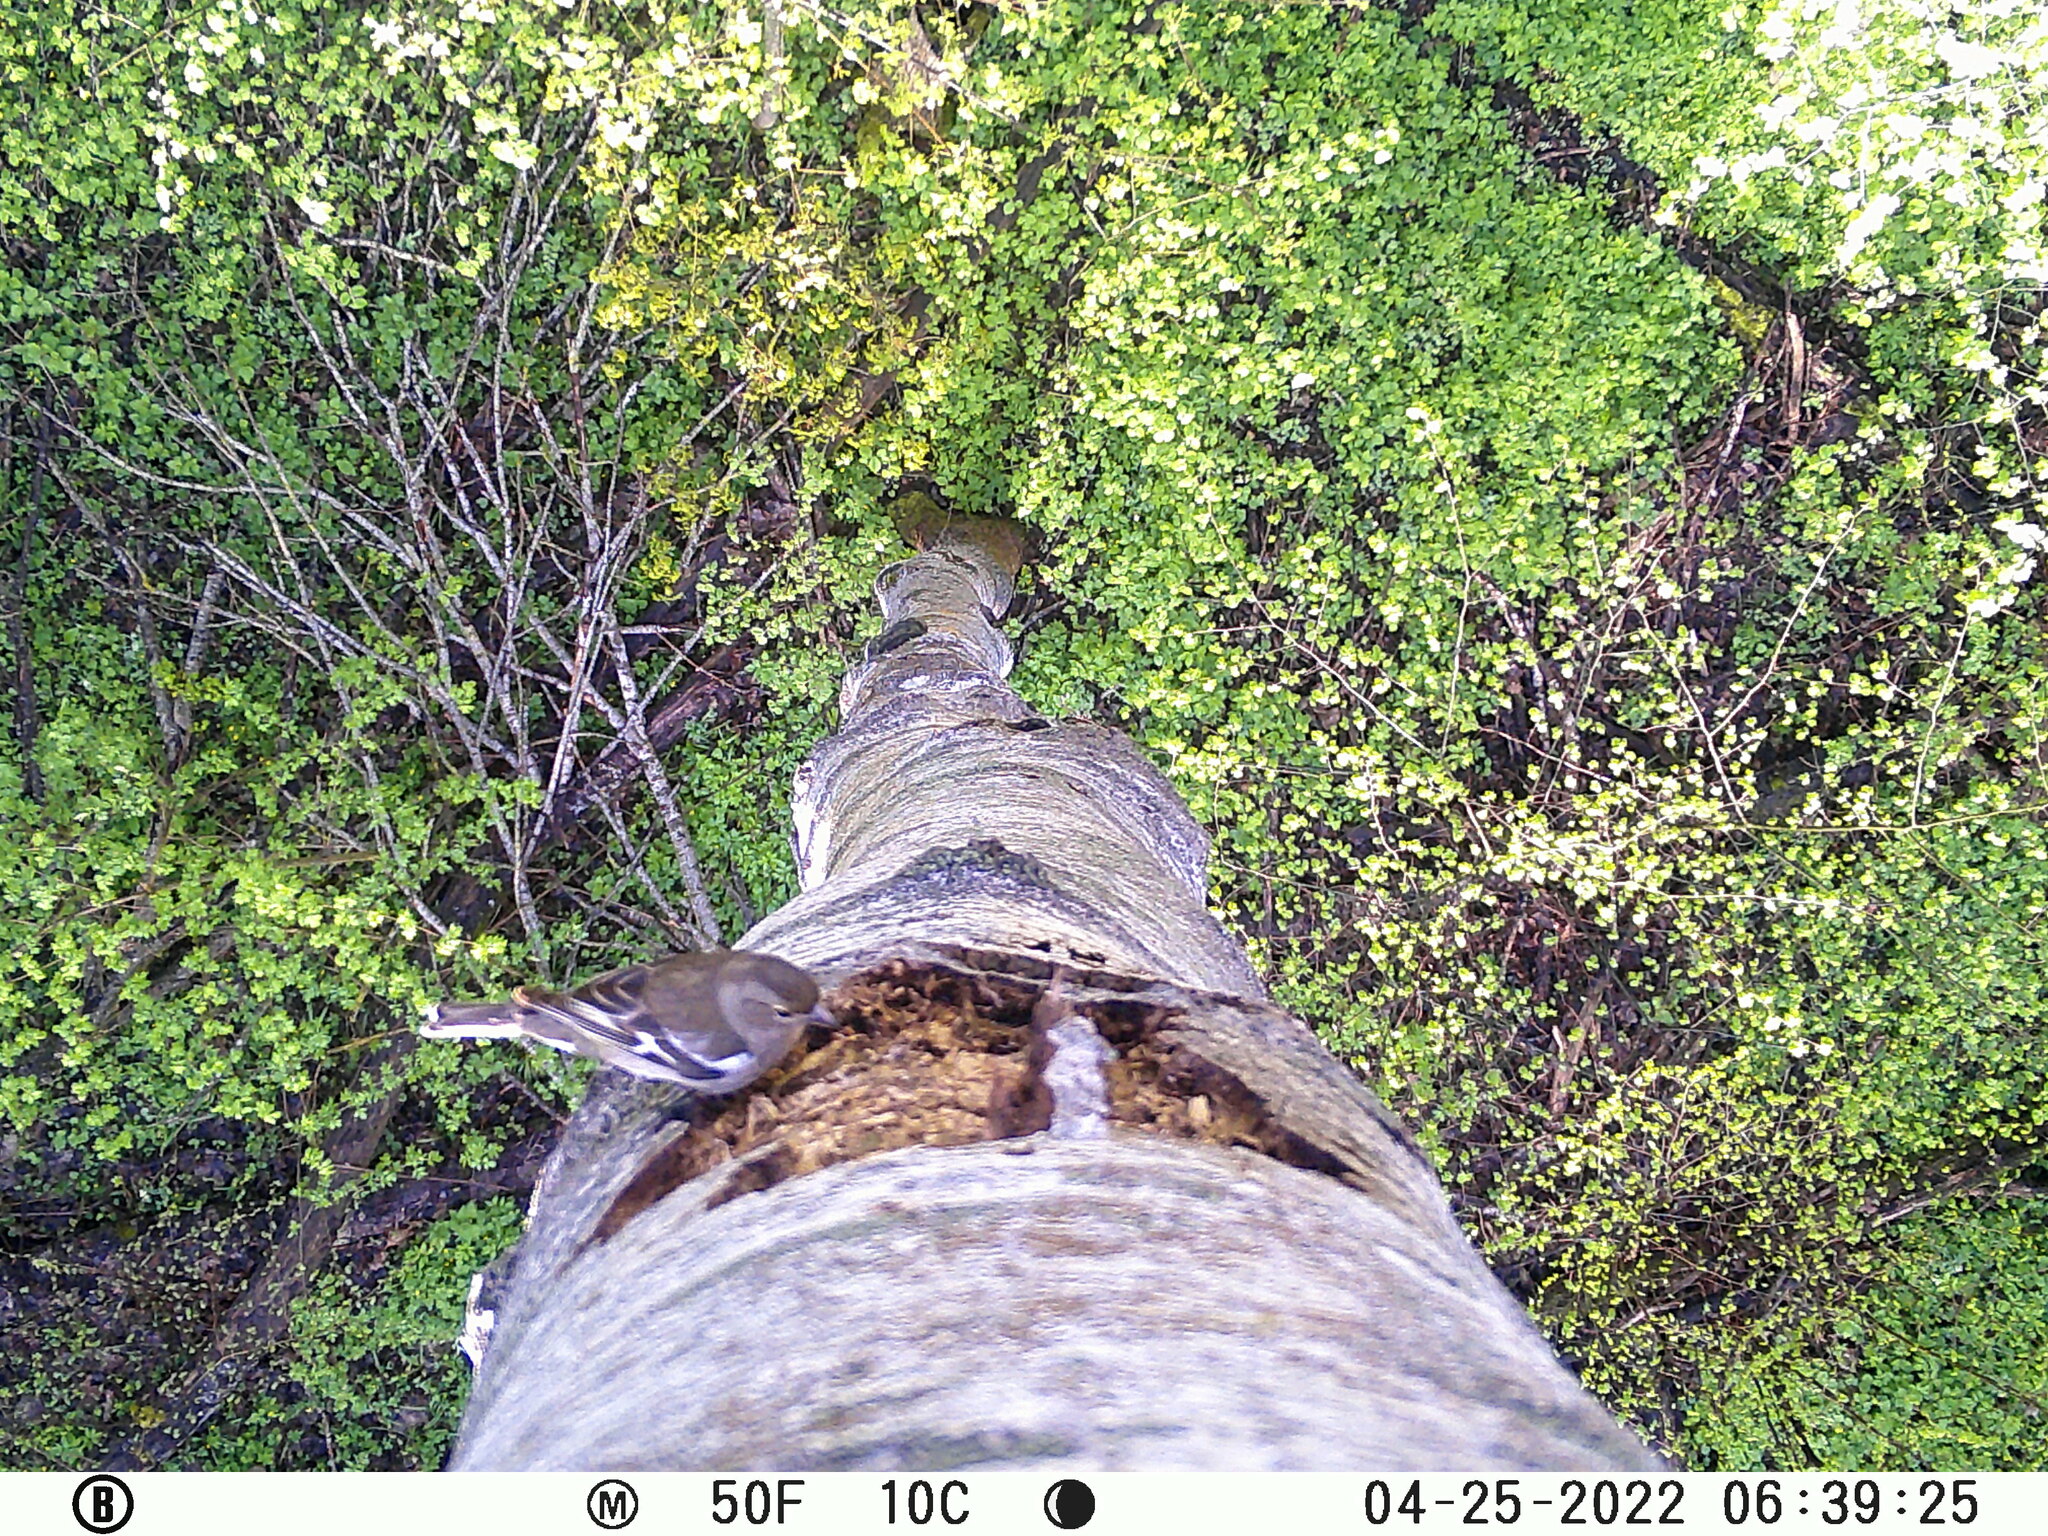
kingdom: Animalia
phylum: Chordata
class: Aves
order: Passeriformes
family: Fringillidae
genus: Fringilla
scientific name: Fringilla coelebs
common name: Common chaffinch
